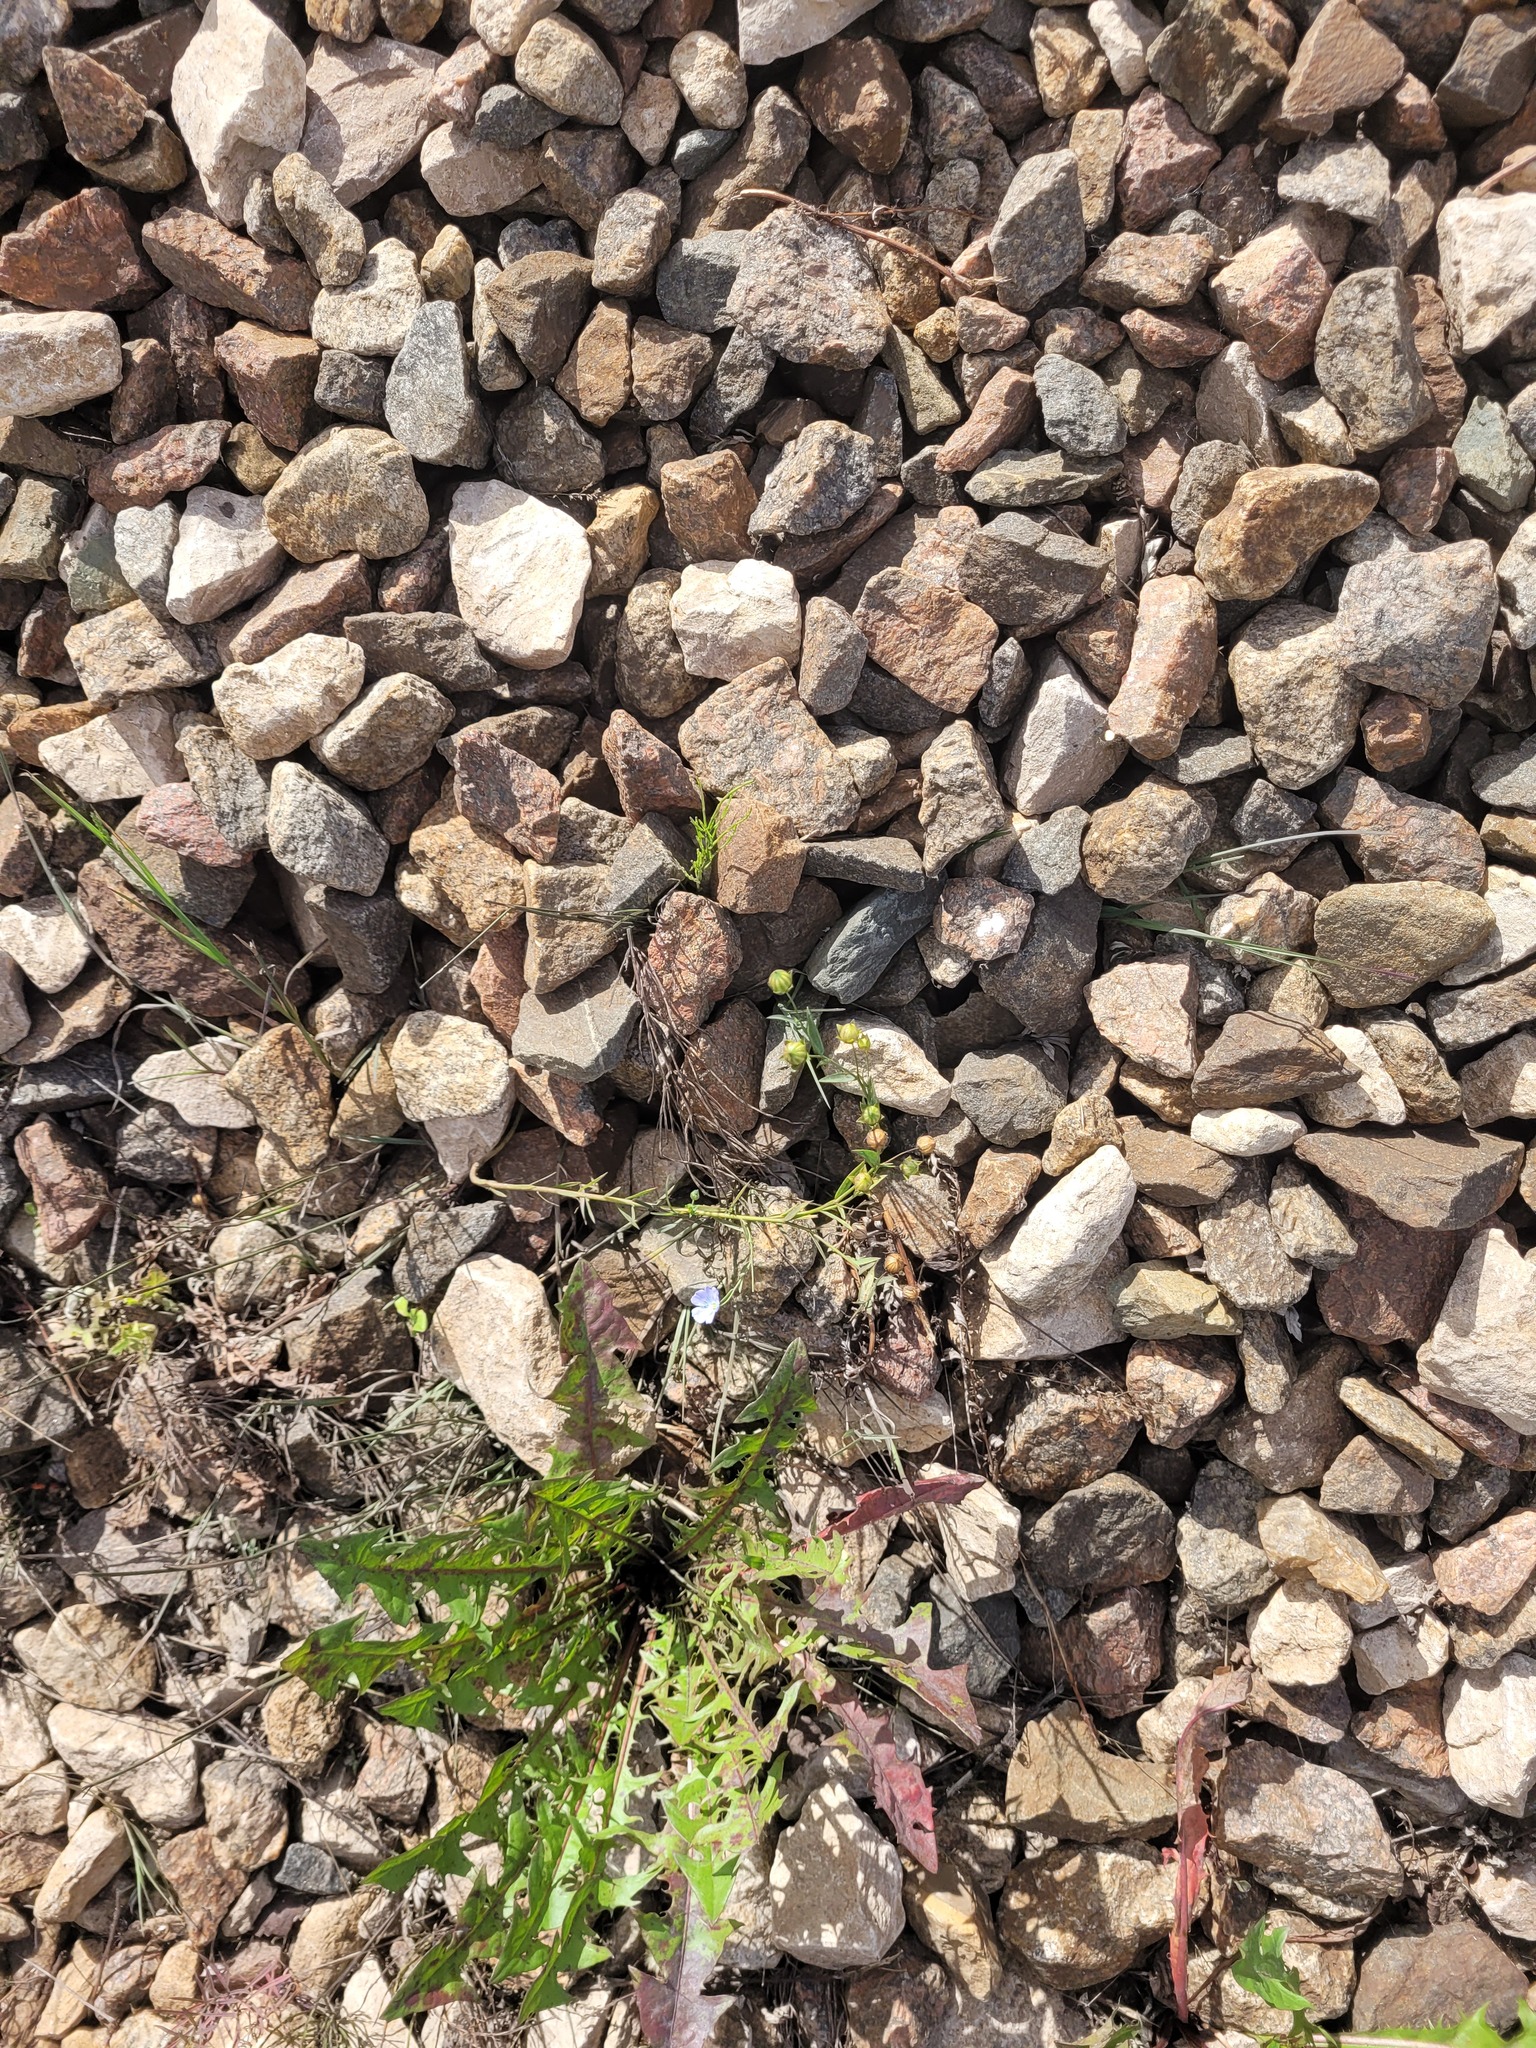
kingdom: Plantae
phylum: Tracheophyta
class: Magnoliopsida
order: Malpighiales
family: Linaceae
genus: Linum
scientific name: Linum usitatissimum
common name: Flax
